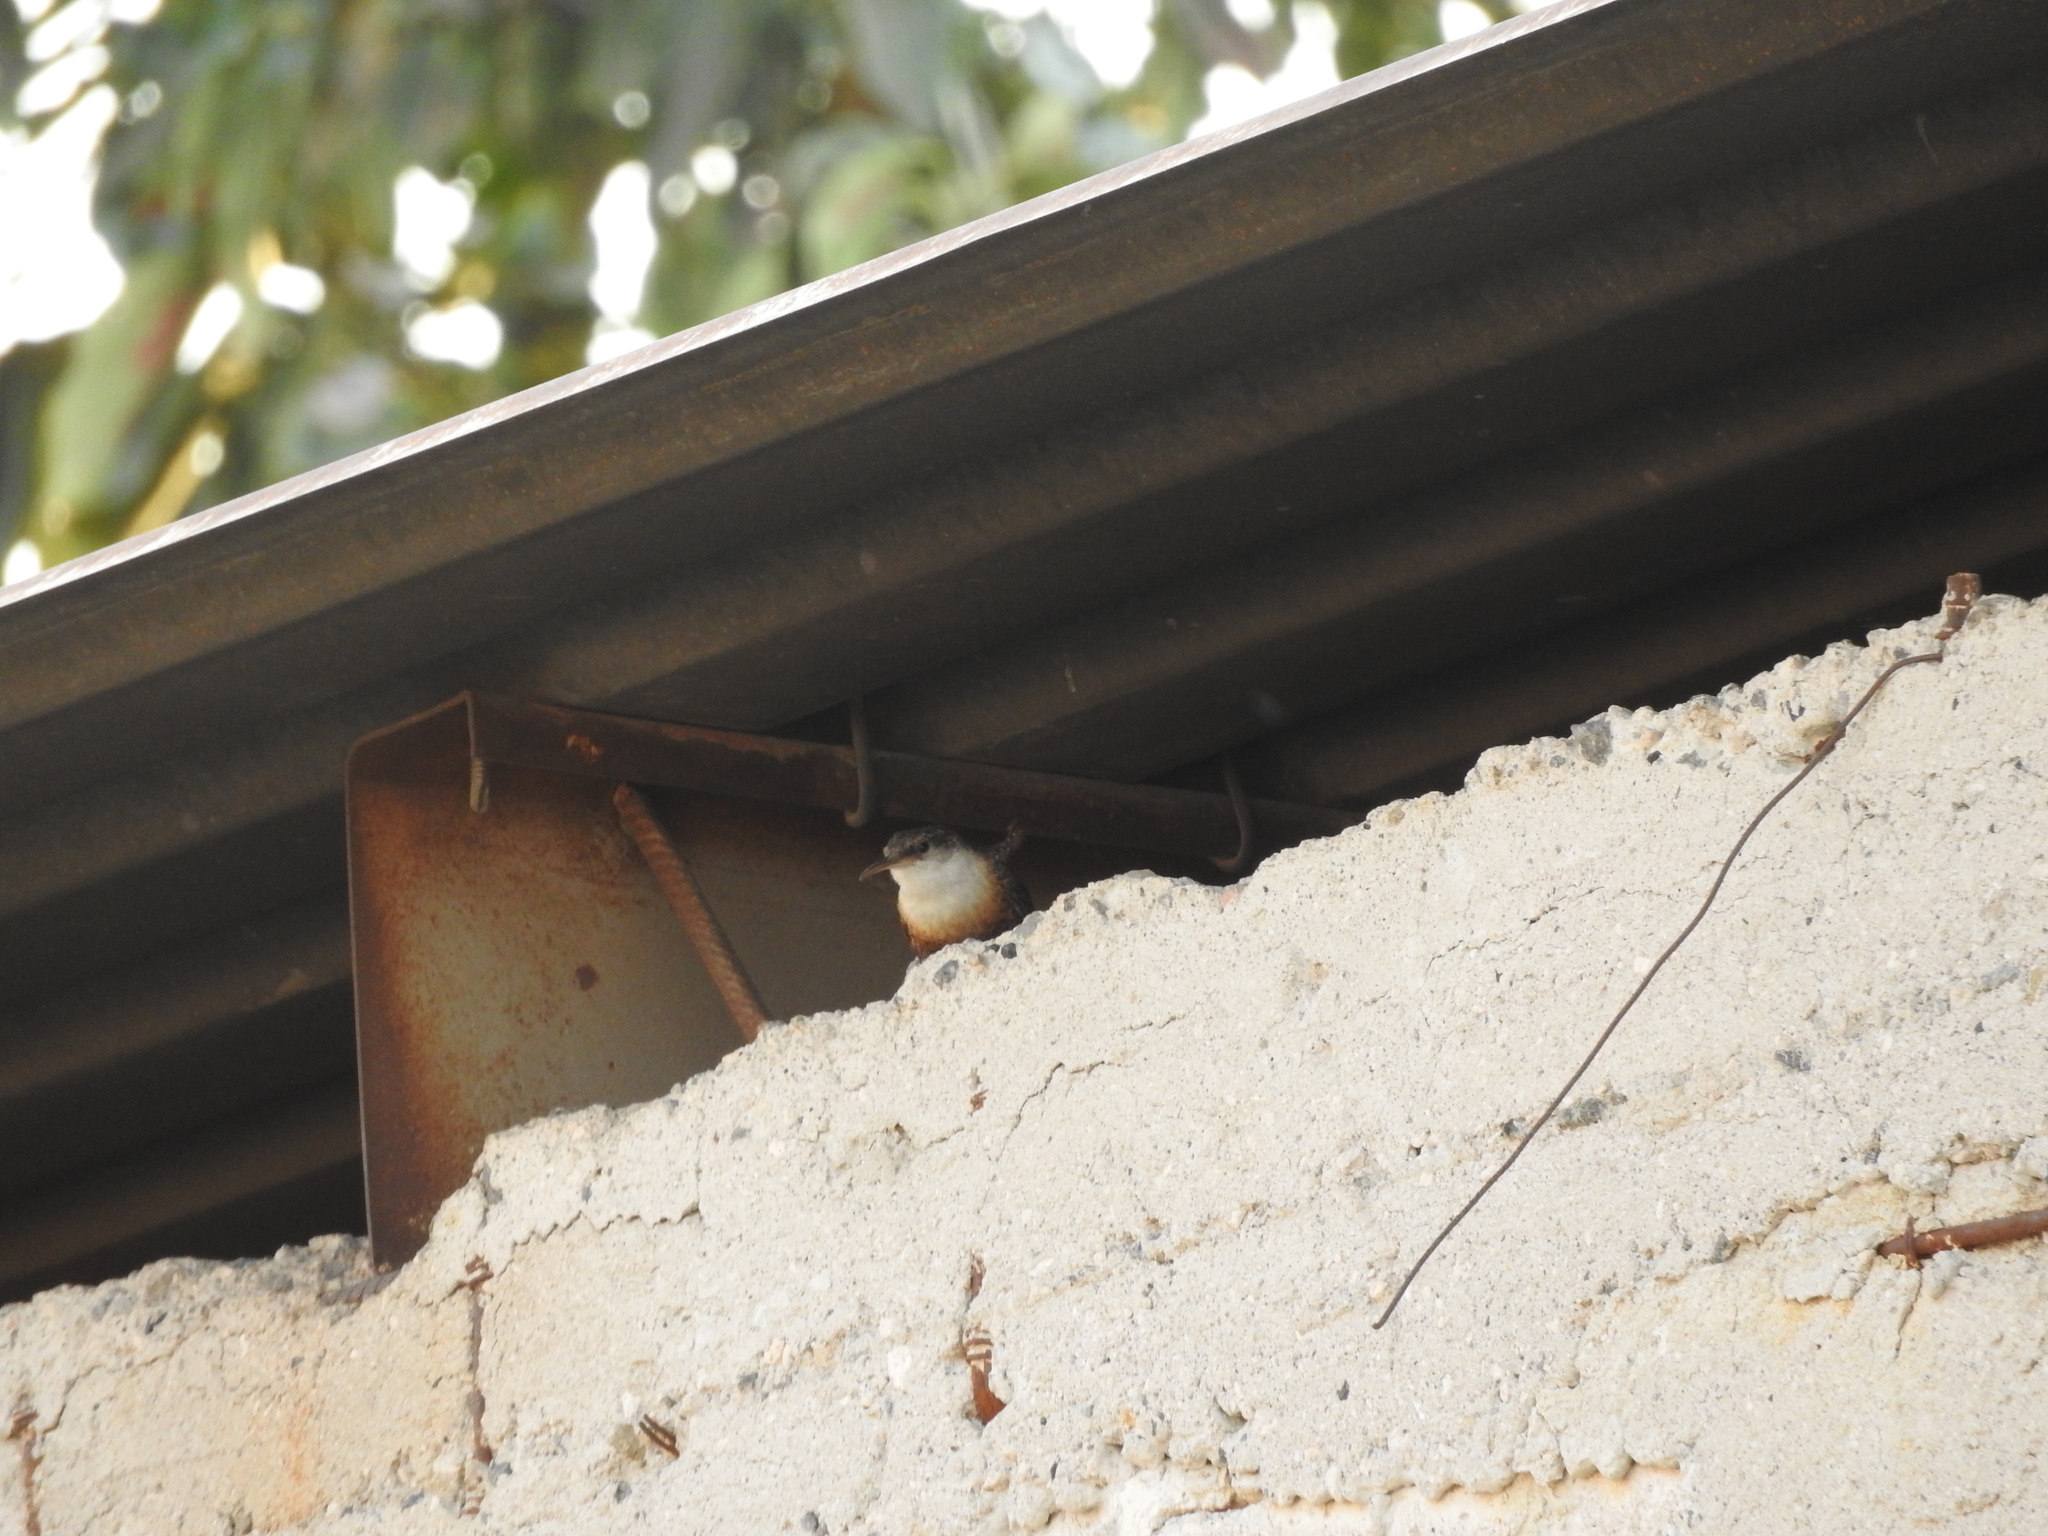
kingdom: Animalia
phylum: Chordata
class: Aves
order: Passeriformes
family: Troglodytidae
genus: Catherpes
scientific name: Catherpes mexicanus
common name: Canyon wren
